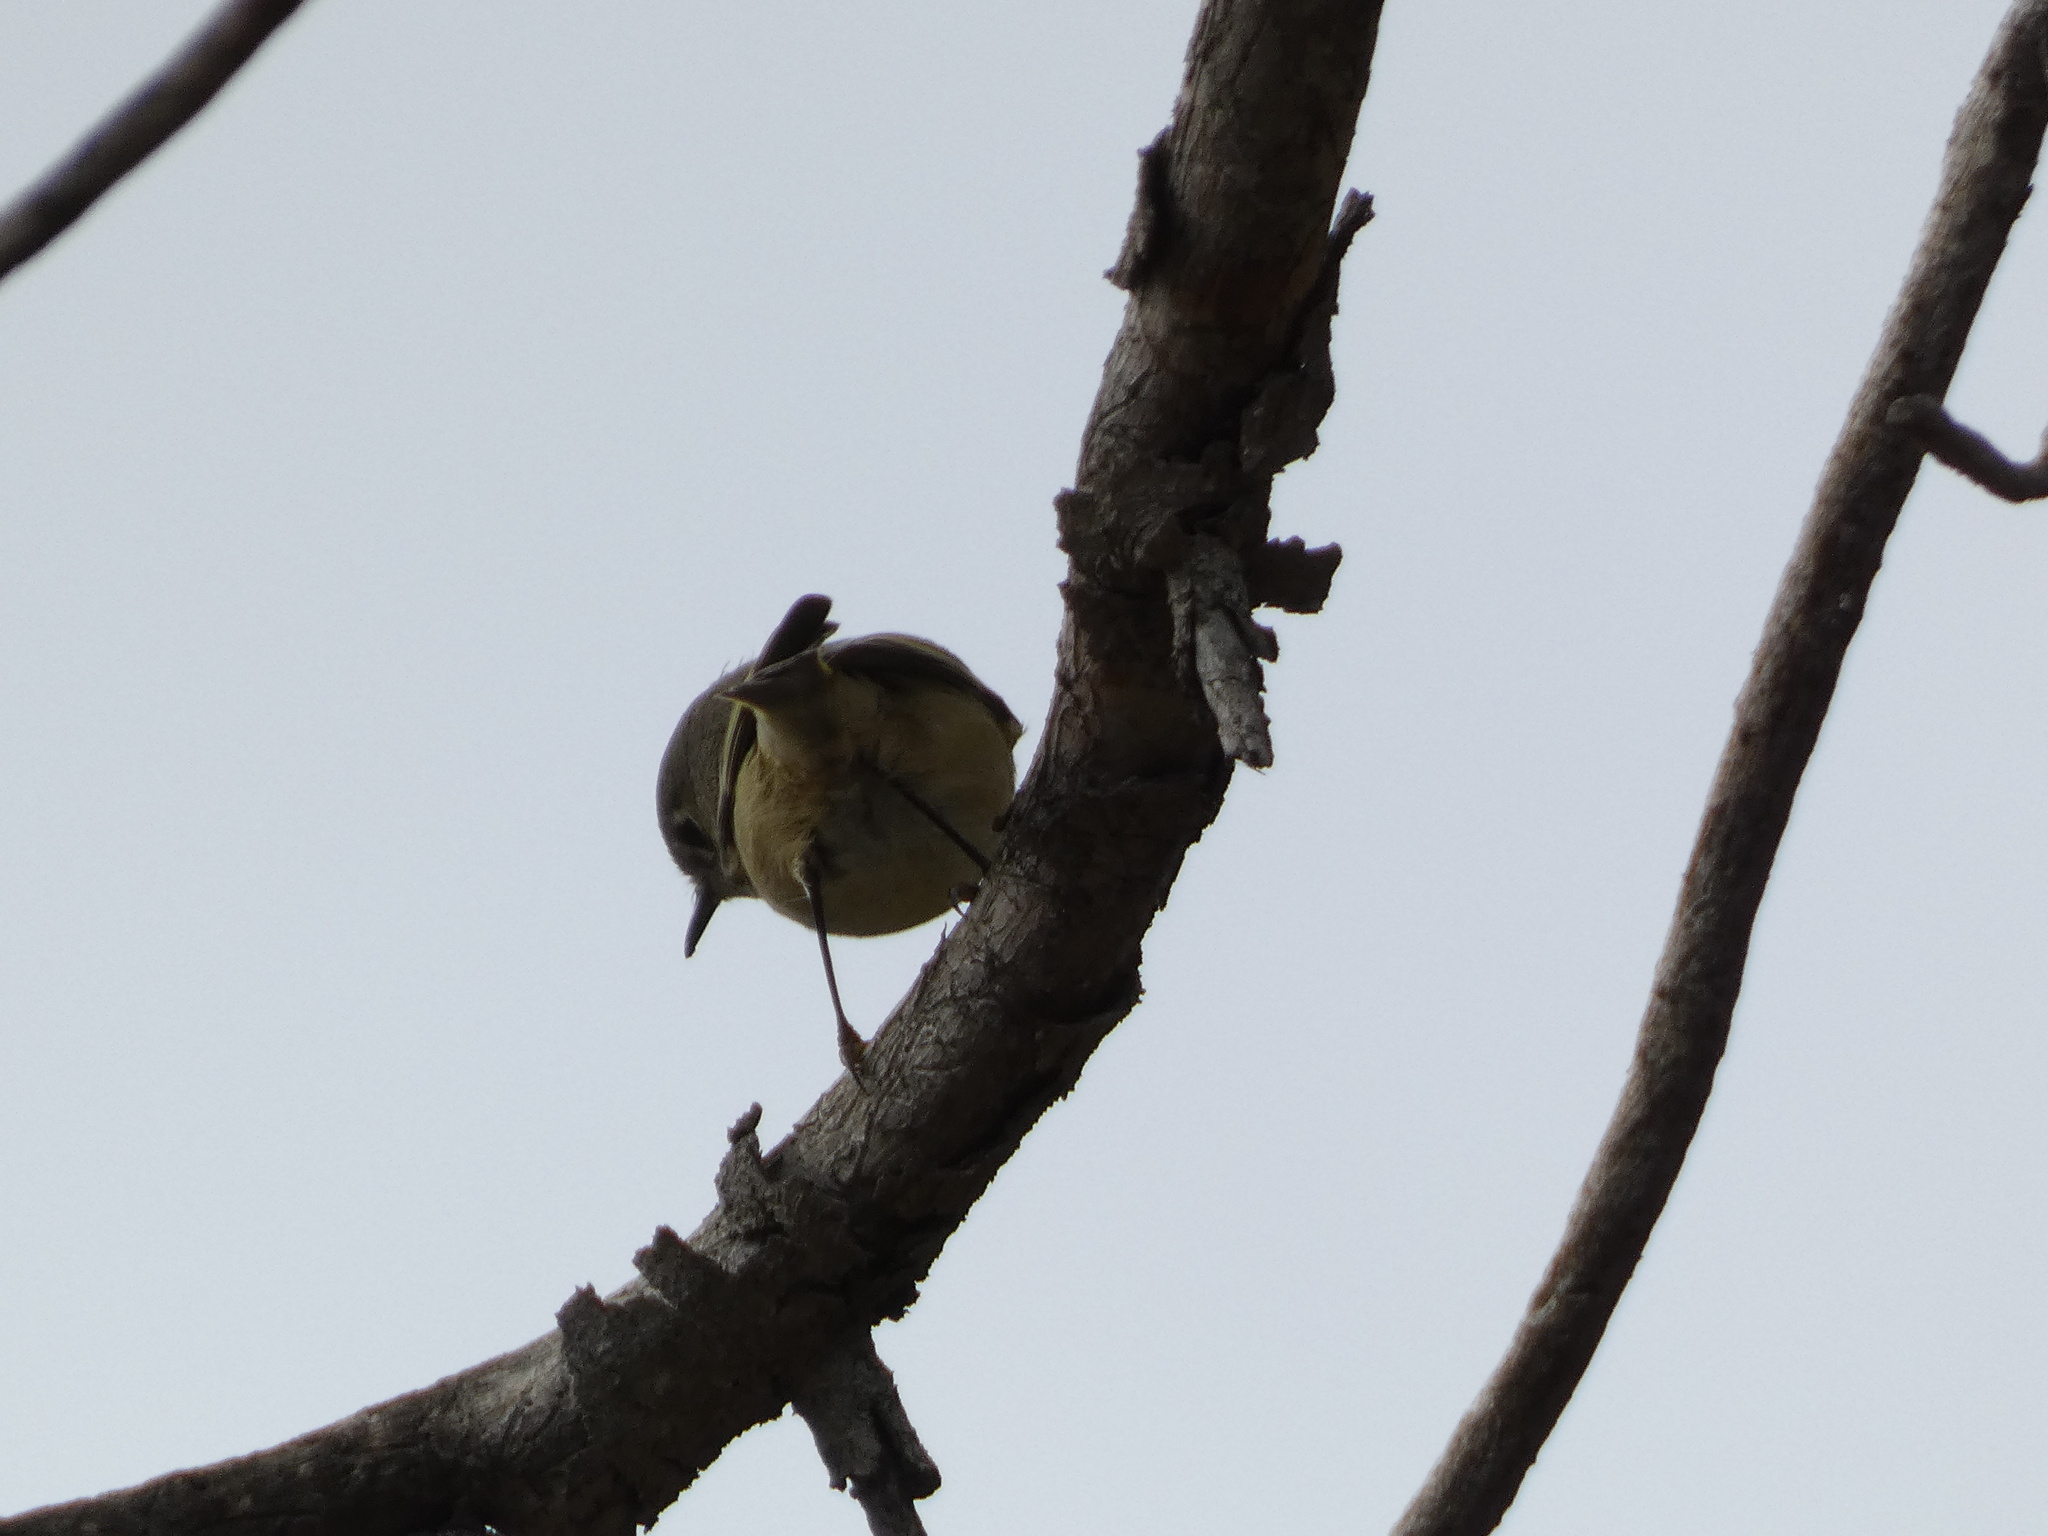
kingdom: Animalia
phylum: Chordata
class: Aves
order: Passeriformes
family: Regulidae
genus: Regulus
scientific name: Regulus calendula
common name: Ruby-crowned kinglet
